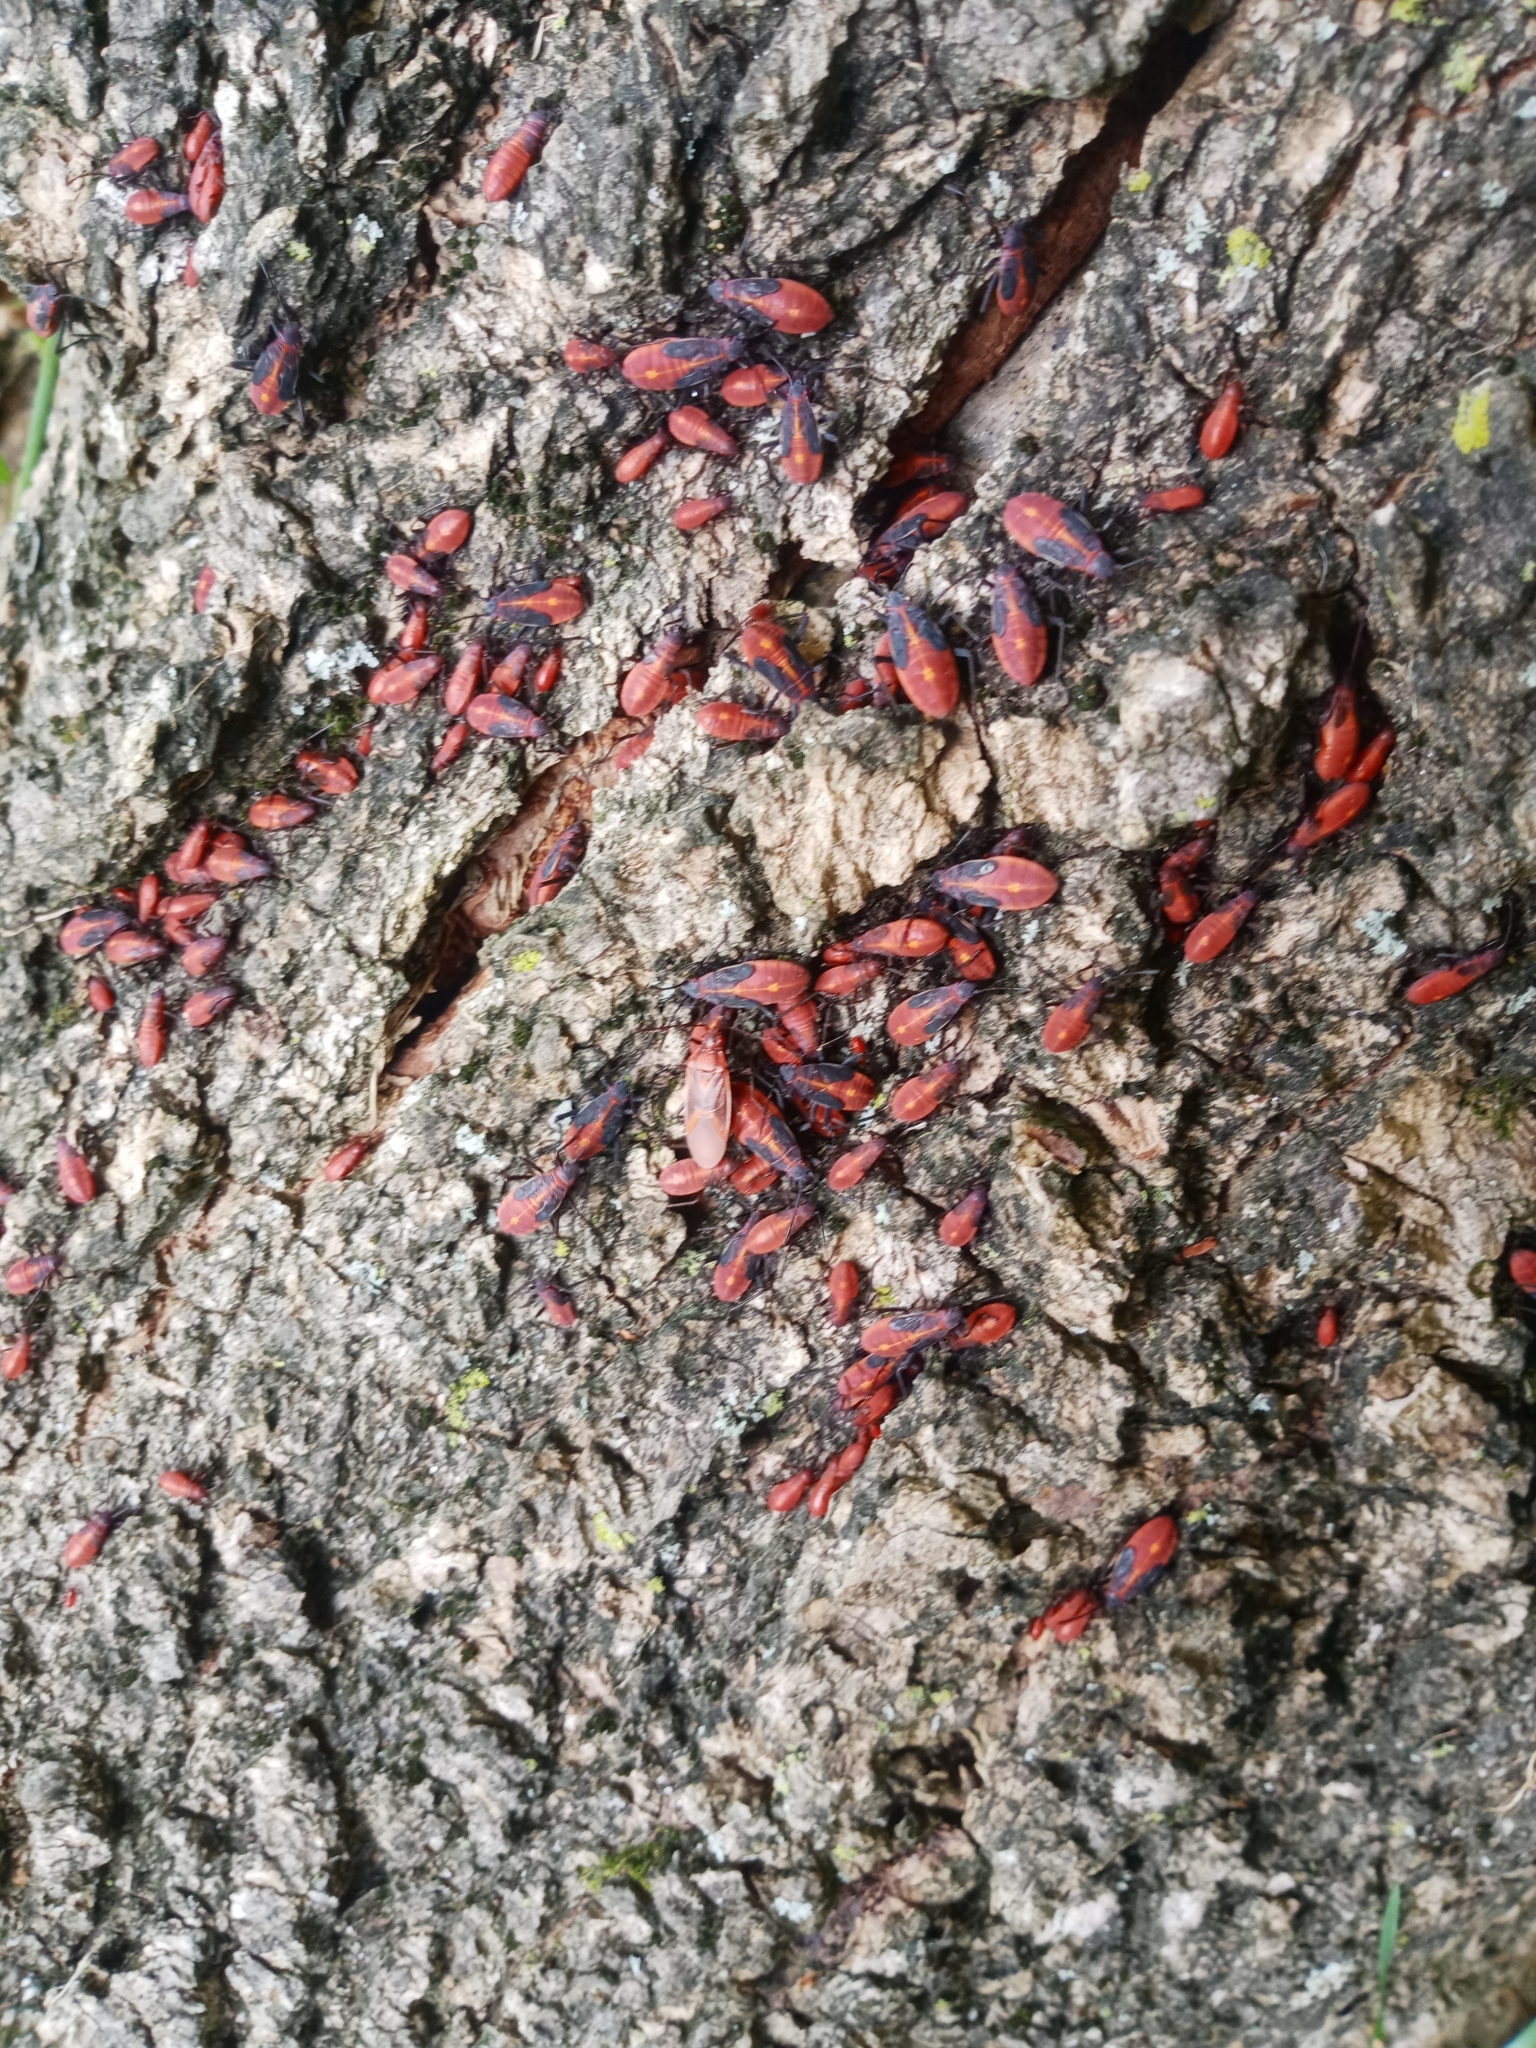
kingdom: Animalia
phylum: Arthropoda
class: Insecta
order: Hemiptera
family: Rhopalidae
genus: Boisea
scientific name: Boisea trivittata
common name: Boxelder bug
